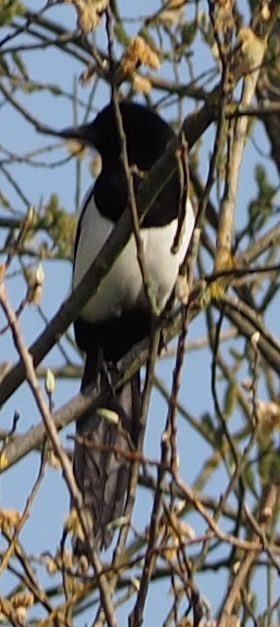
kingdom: Animalia
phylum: Chordata
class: Aves
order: Passeriformes
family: Corvidae
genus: Pica
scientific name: Pica pica
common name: Eurasian magpie
